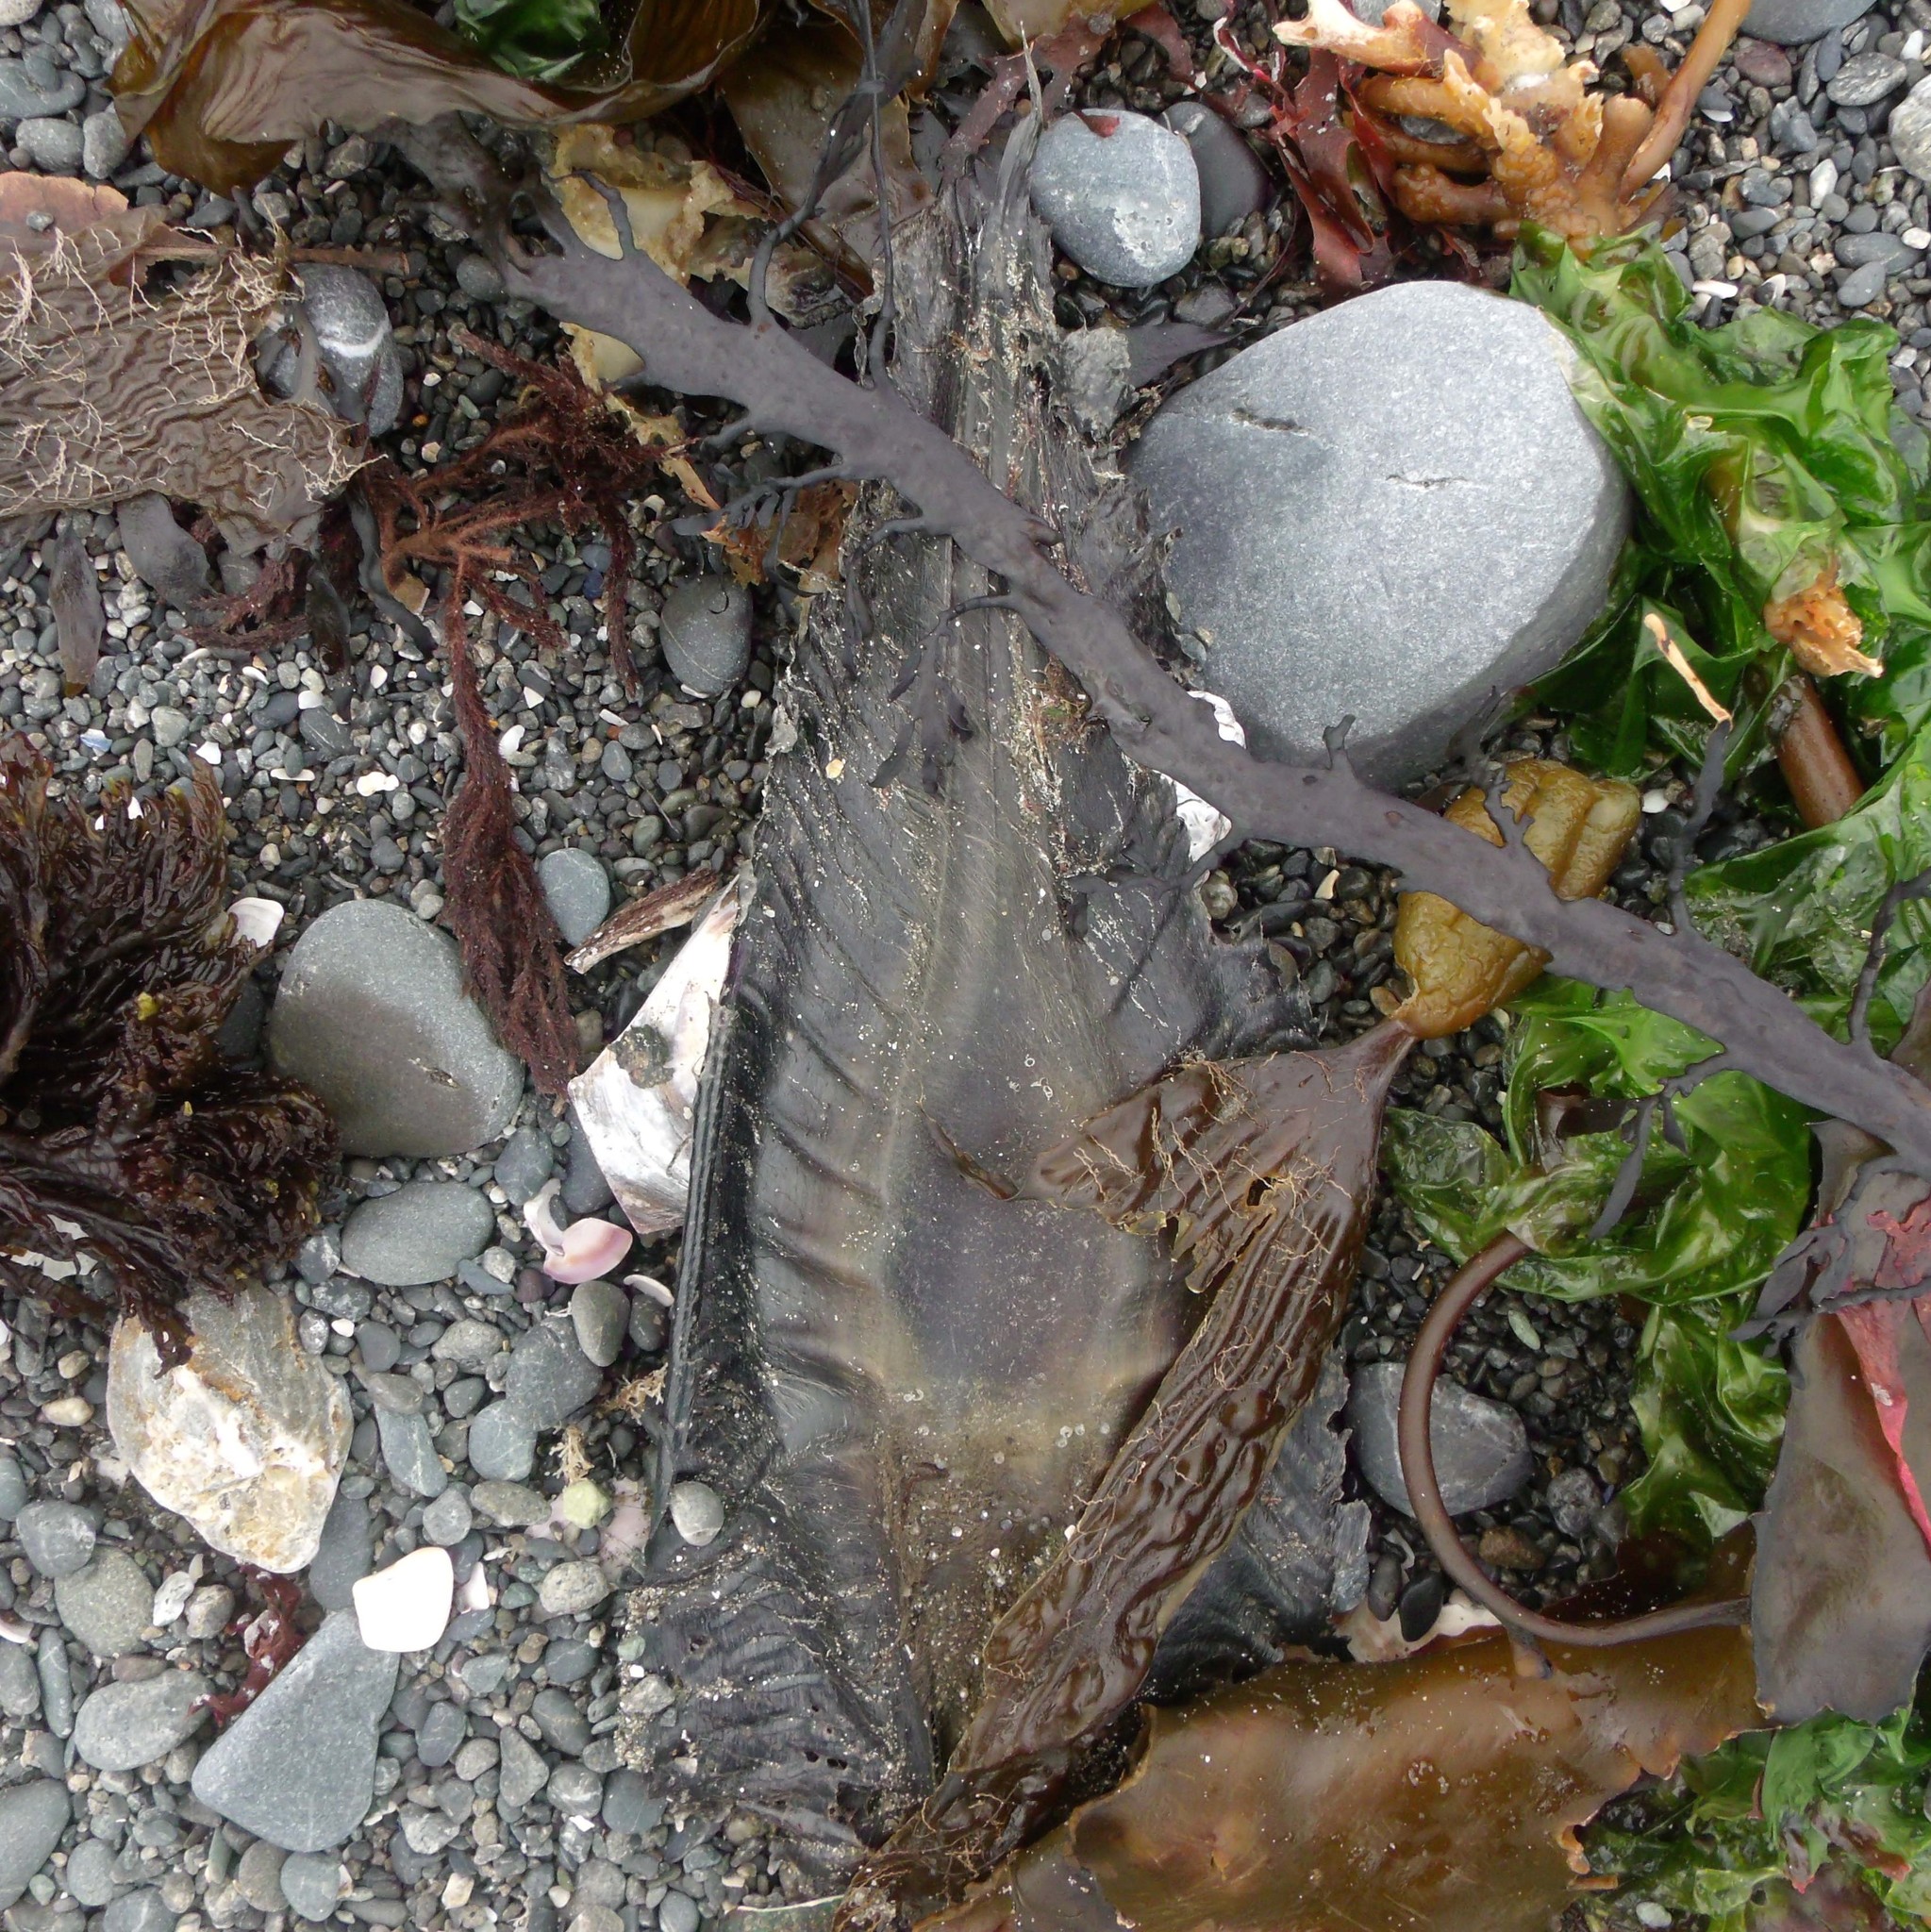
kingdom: Animalia
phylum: Chordata
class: Holocephali
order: Chimaeriformes
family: Callorhinchidae
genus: Callorhinchus
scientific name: Callorhinchus milii
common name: Elephant fish
